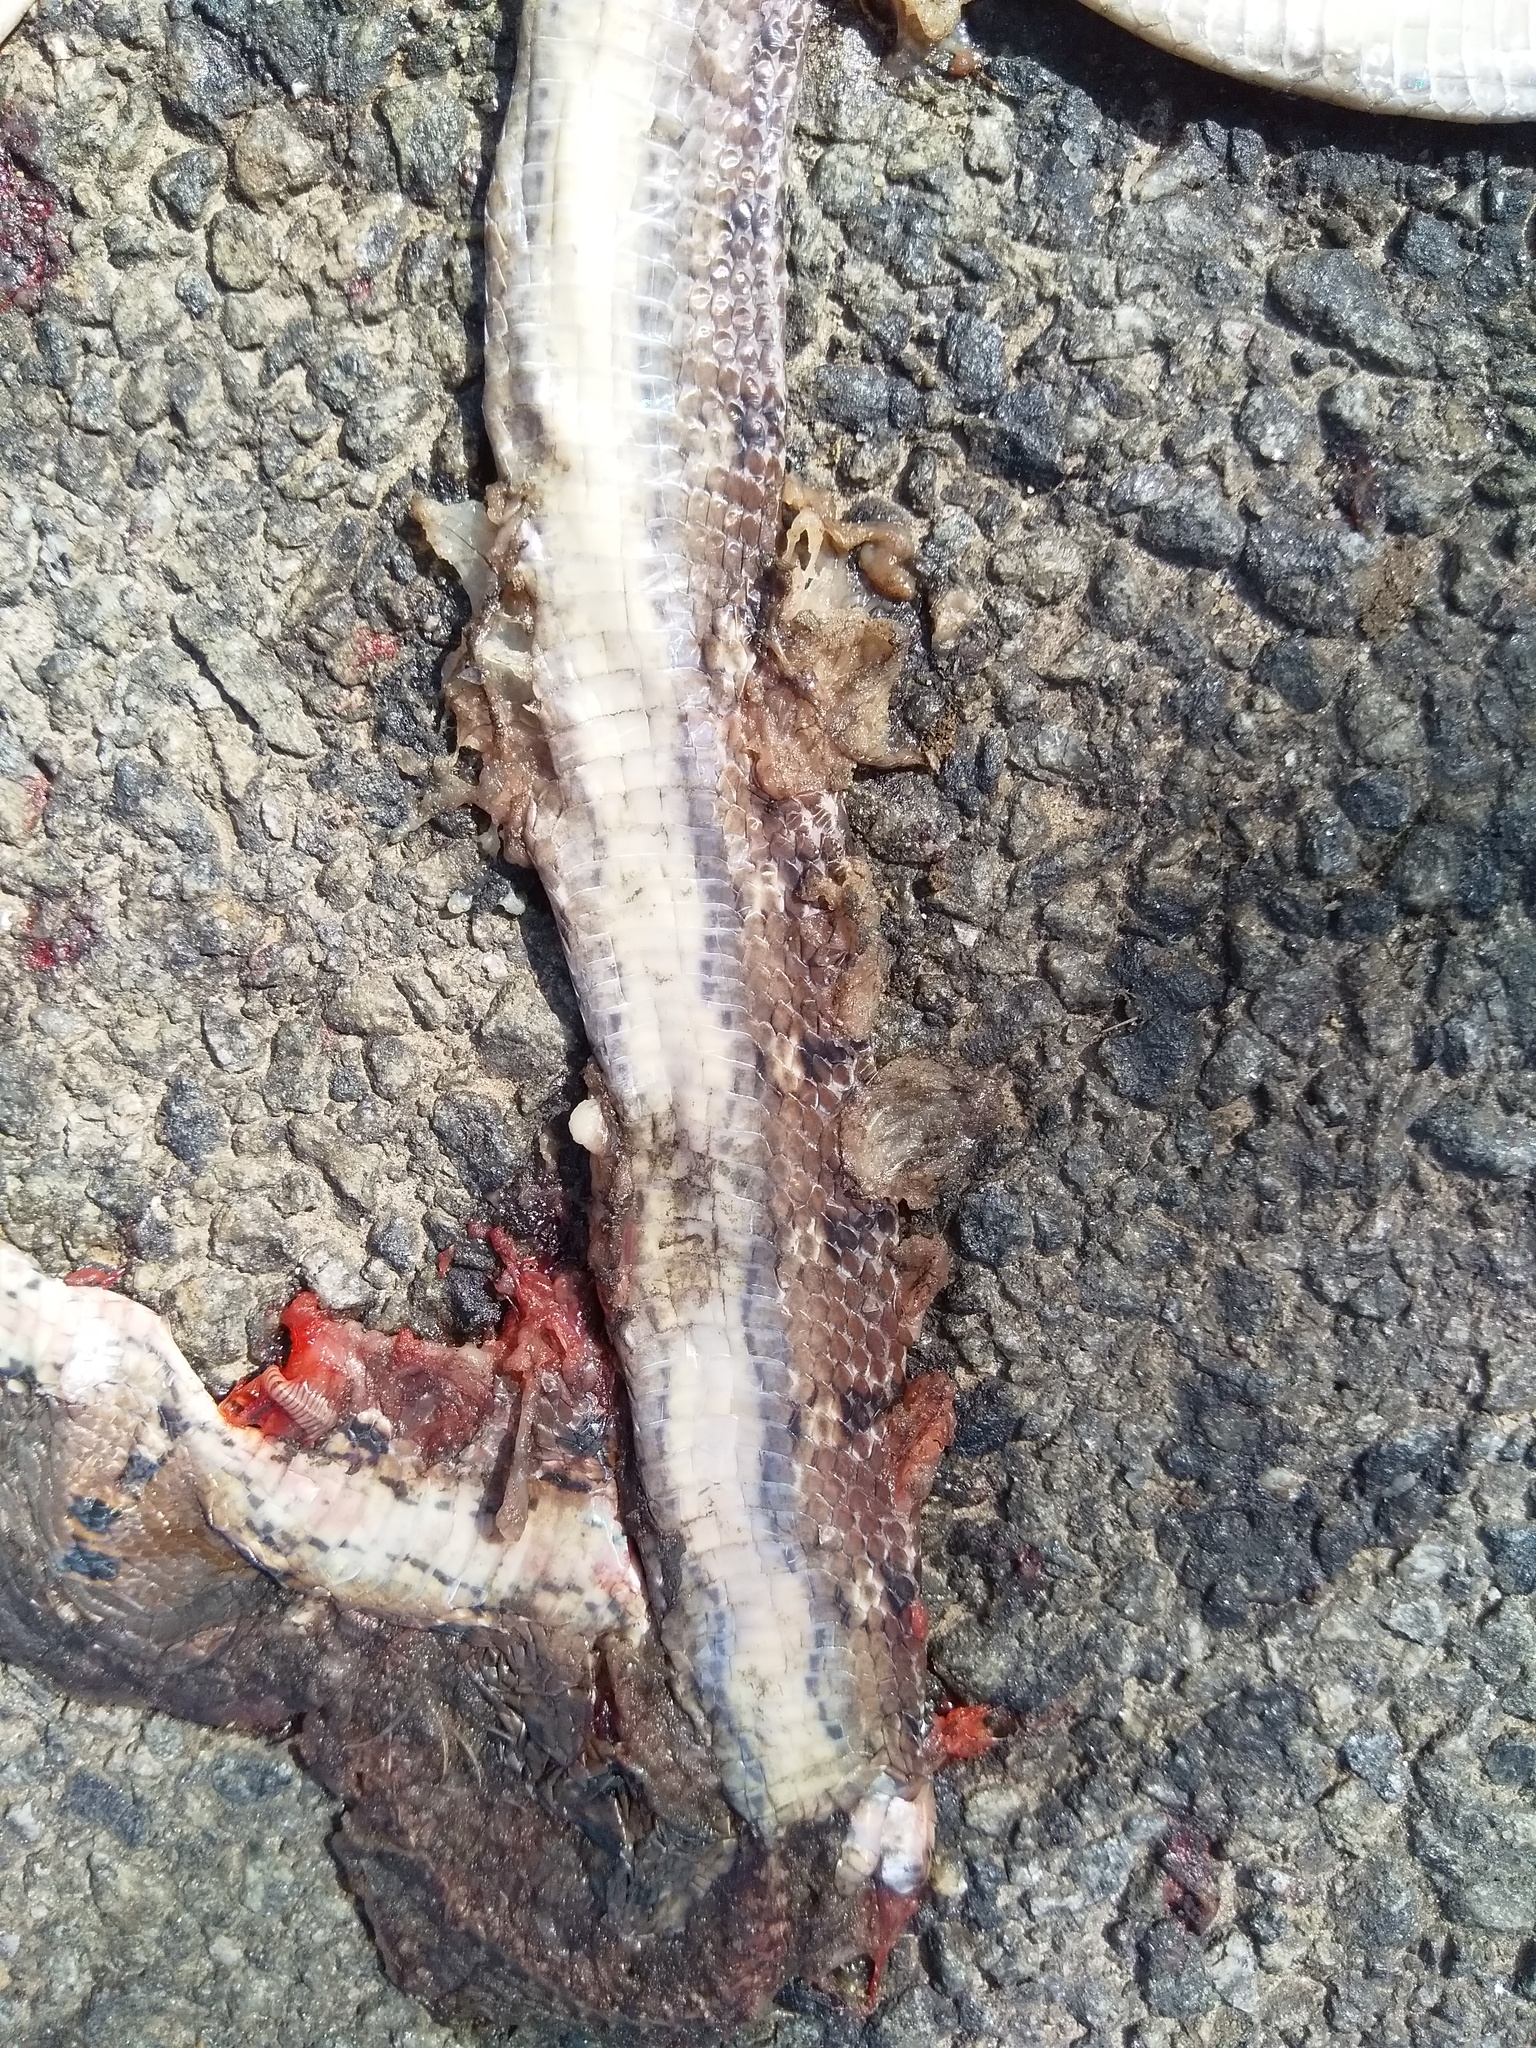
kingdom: Animalia
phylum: Chordata
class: Squamata
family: Colubridae
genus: Coelognathus
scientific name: Coelognathus helena
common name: Trinket snake
